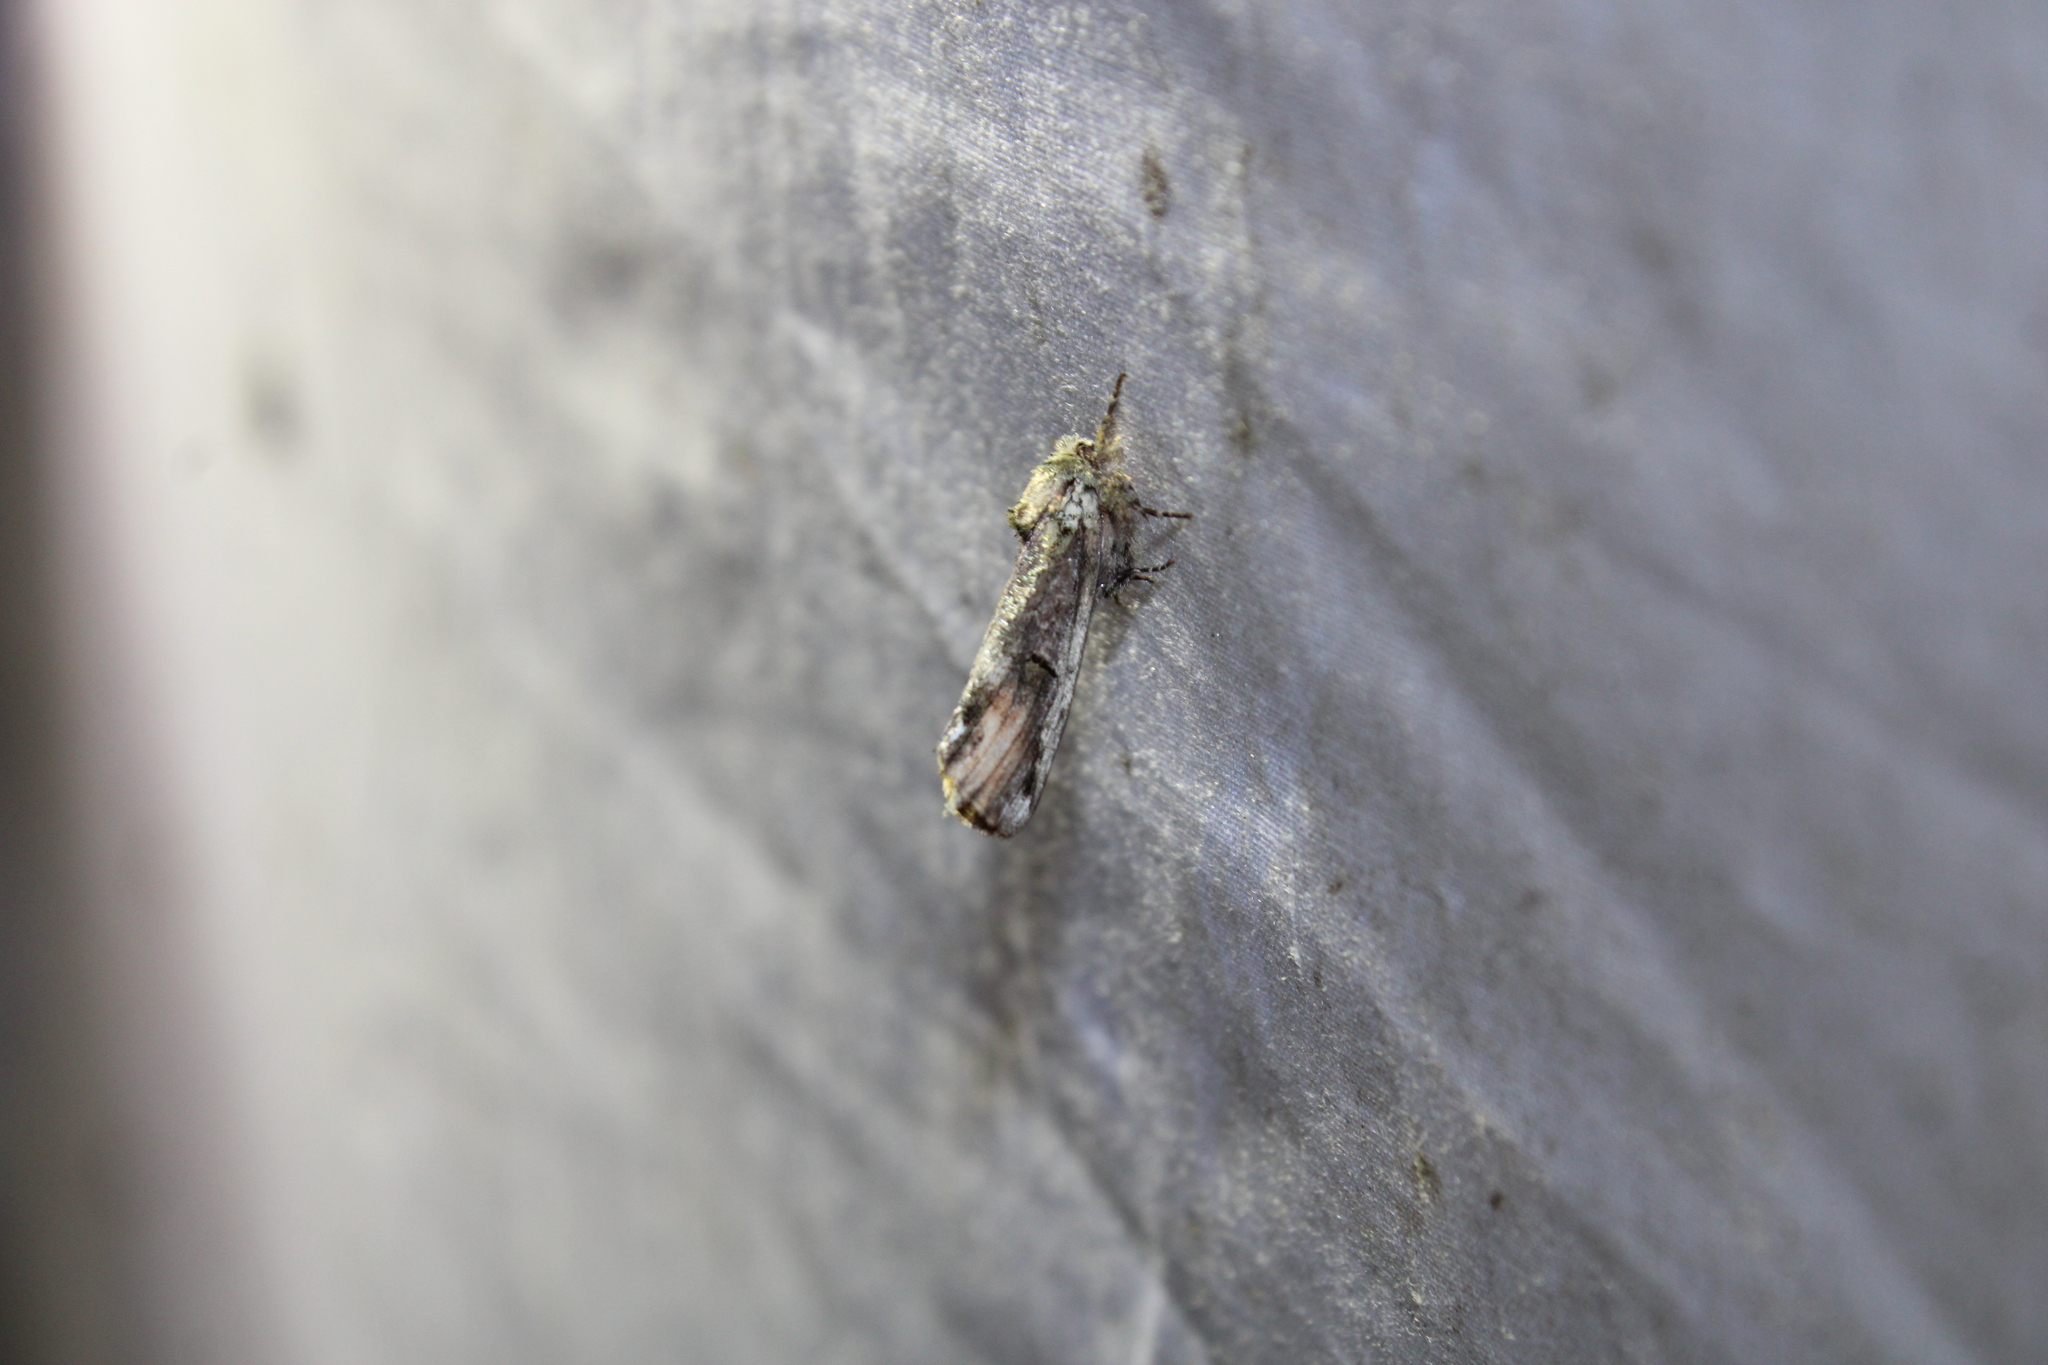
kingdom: Animalia
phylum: Arthropoda
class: Insecta
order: Lepidoptera
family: Notodontidae
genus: Schizura
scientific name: Schizura
